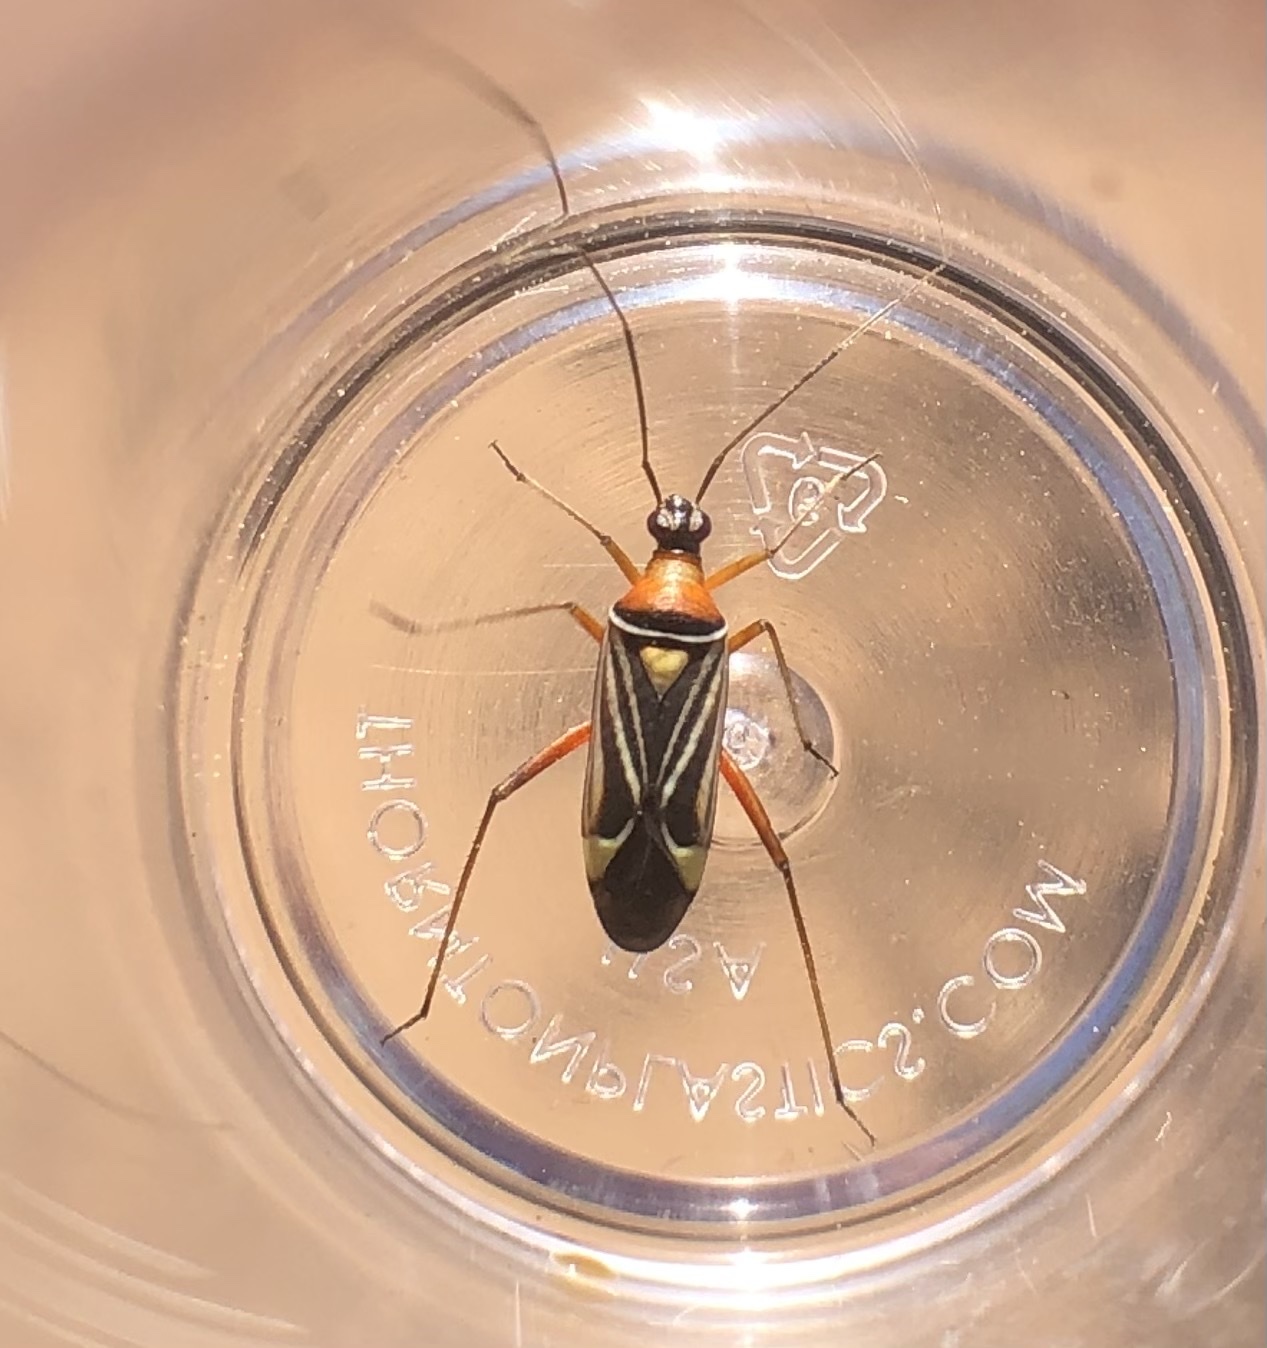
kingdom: Animalia
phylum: Arthropoda
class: Insecta
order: Hemiptera
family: Miridae
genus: Closterocoris
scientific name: Closterocoris amoenus
